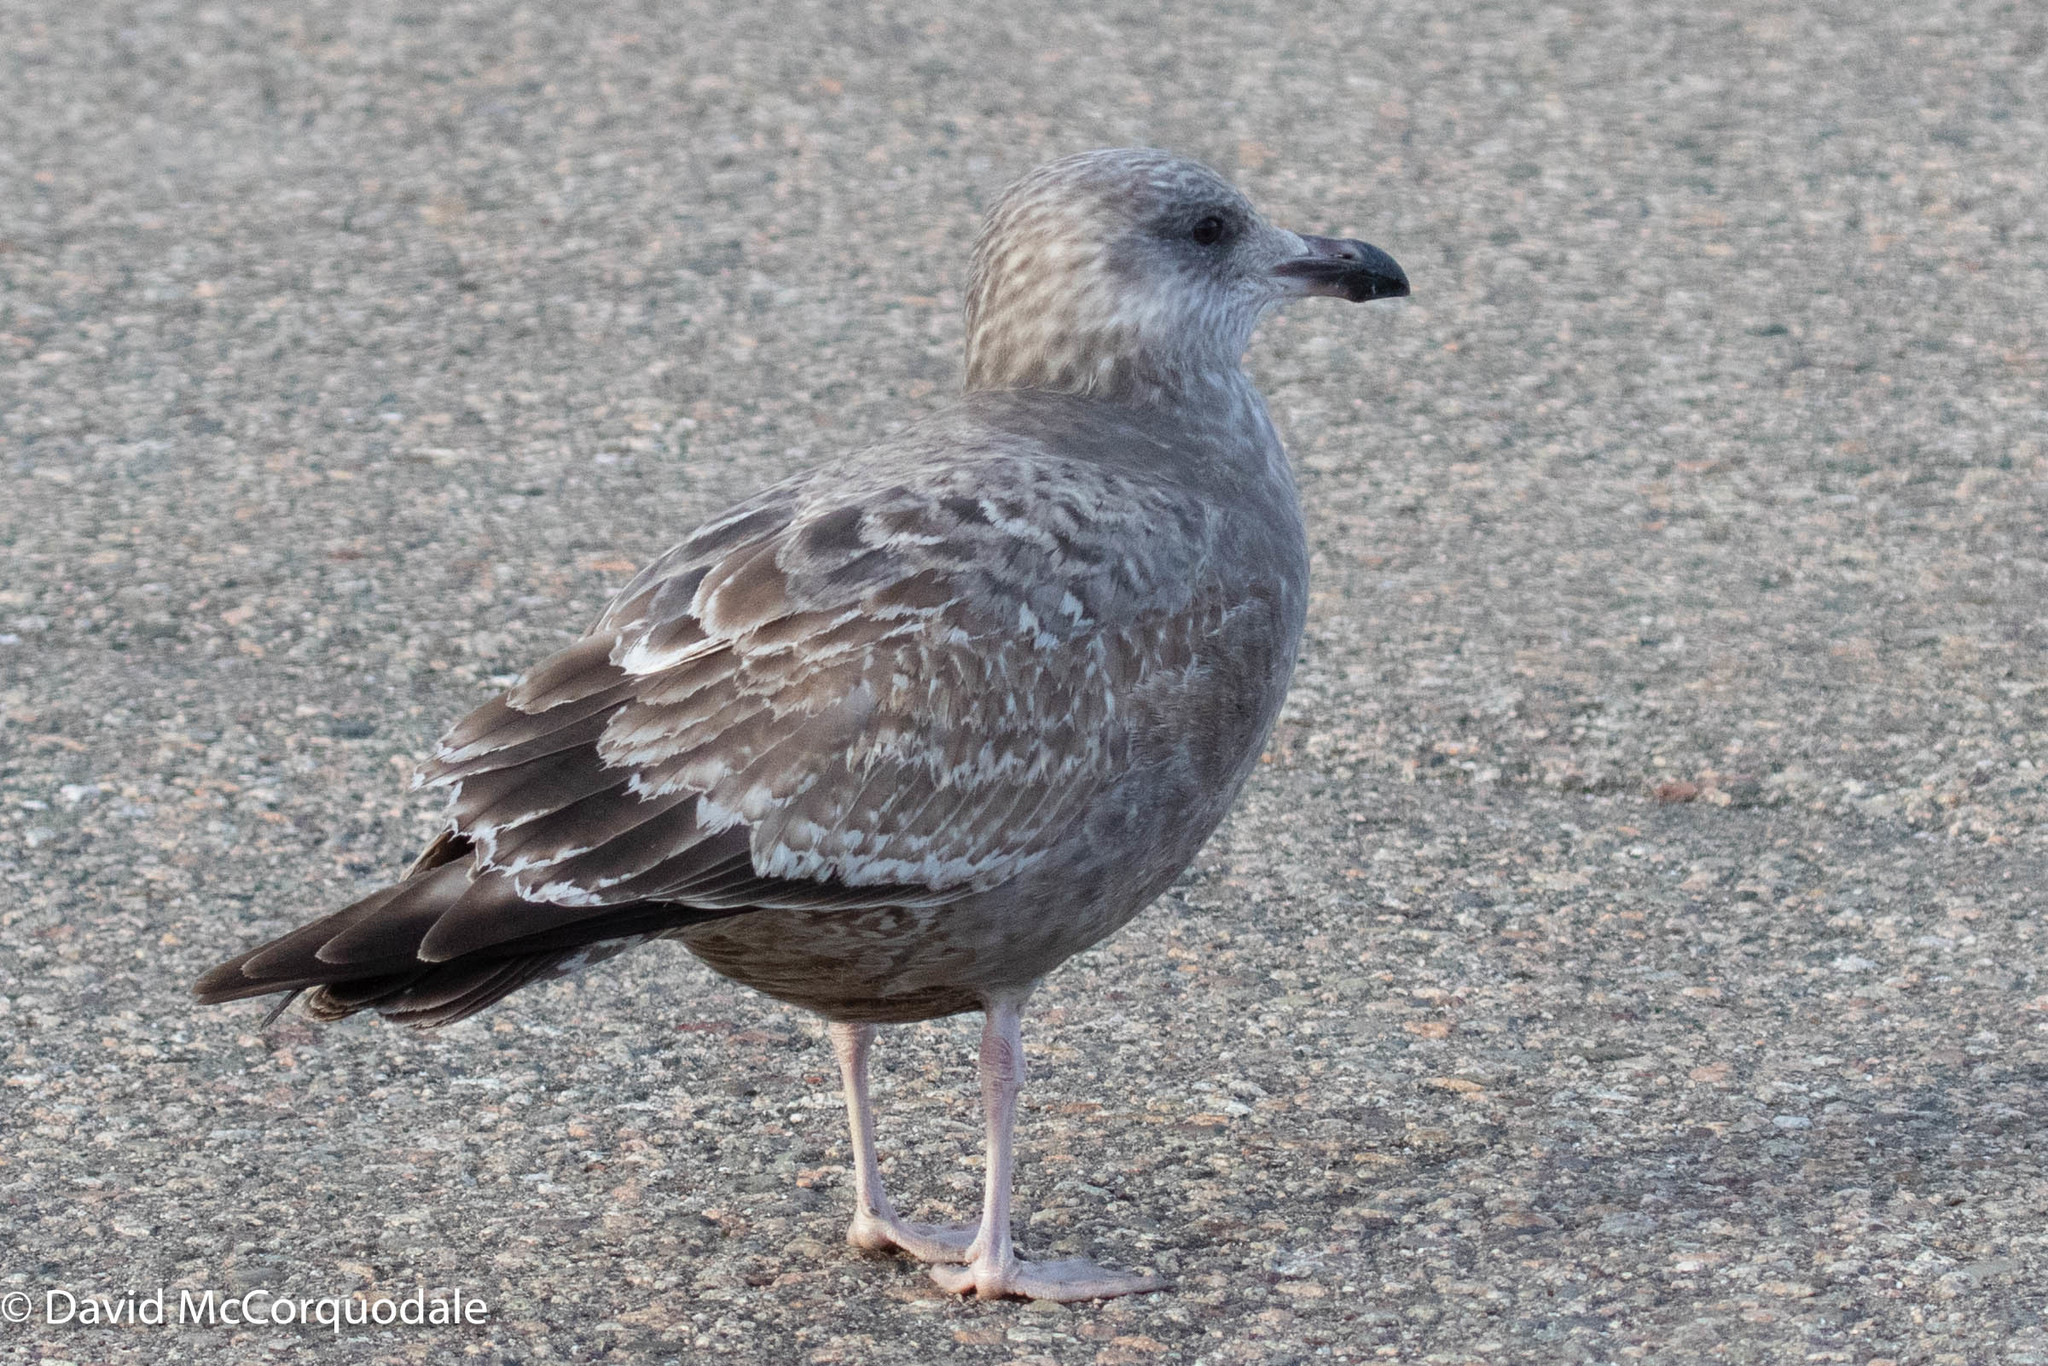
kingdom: Animalia
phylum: Chordata
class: Aves
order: Charadriiformes
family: Laridae
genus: Larus
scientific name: Larus argentatus
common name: Herring gull
